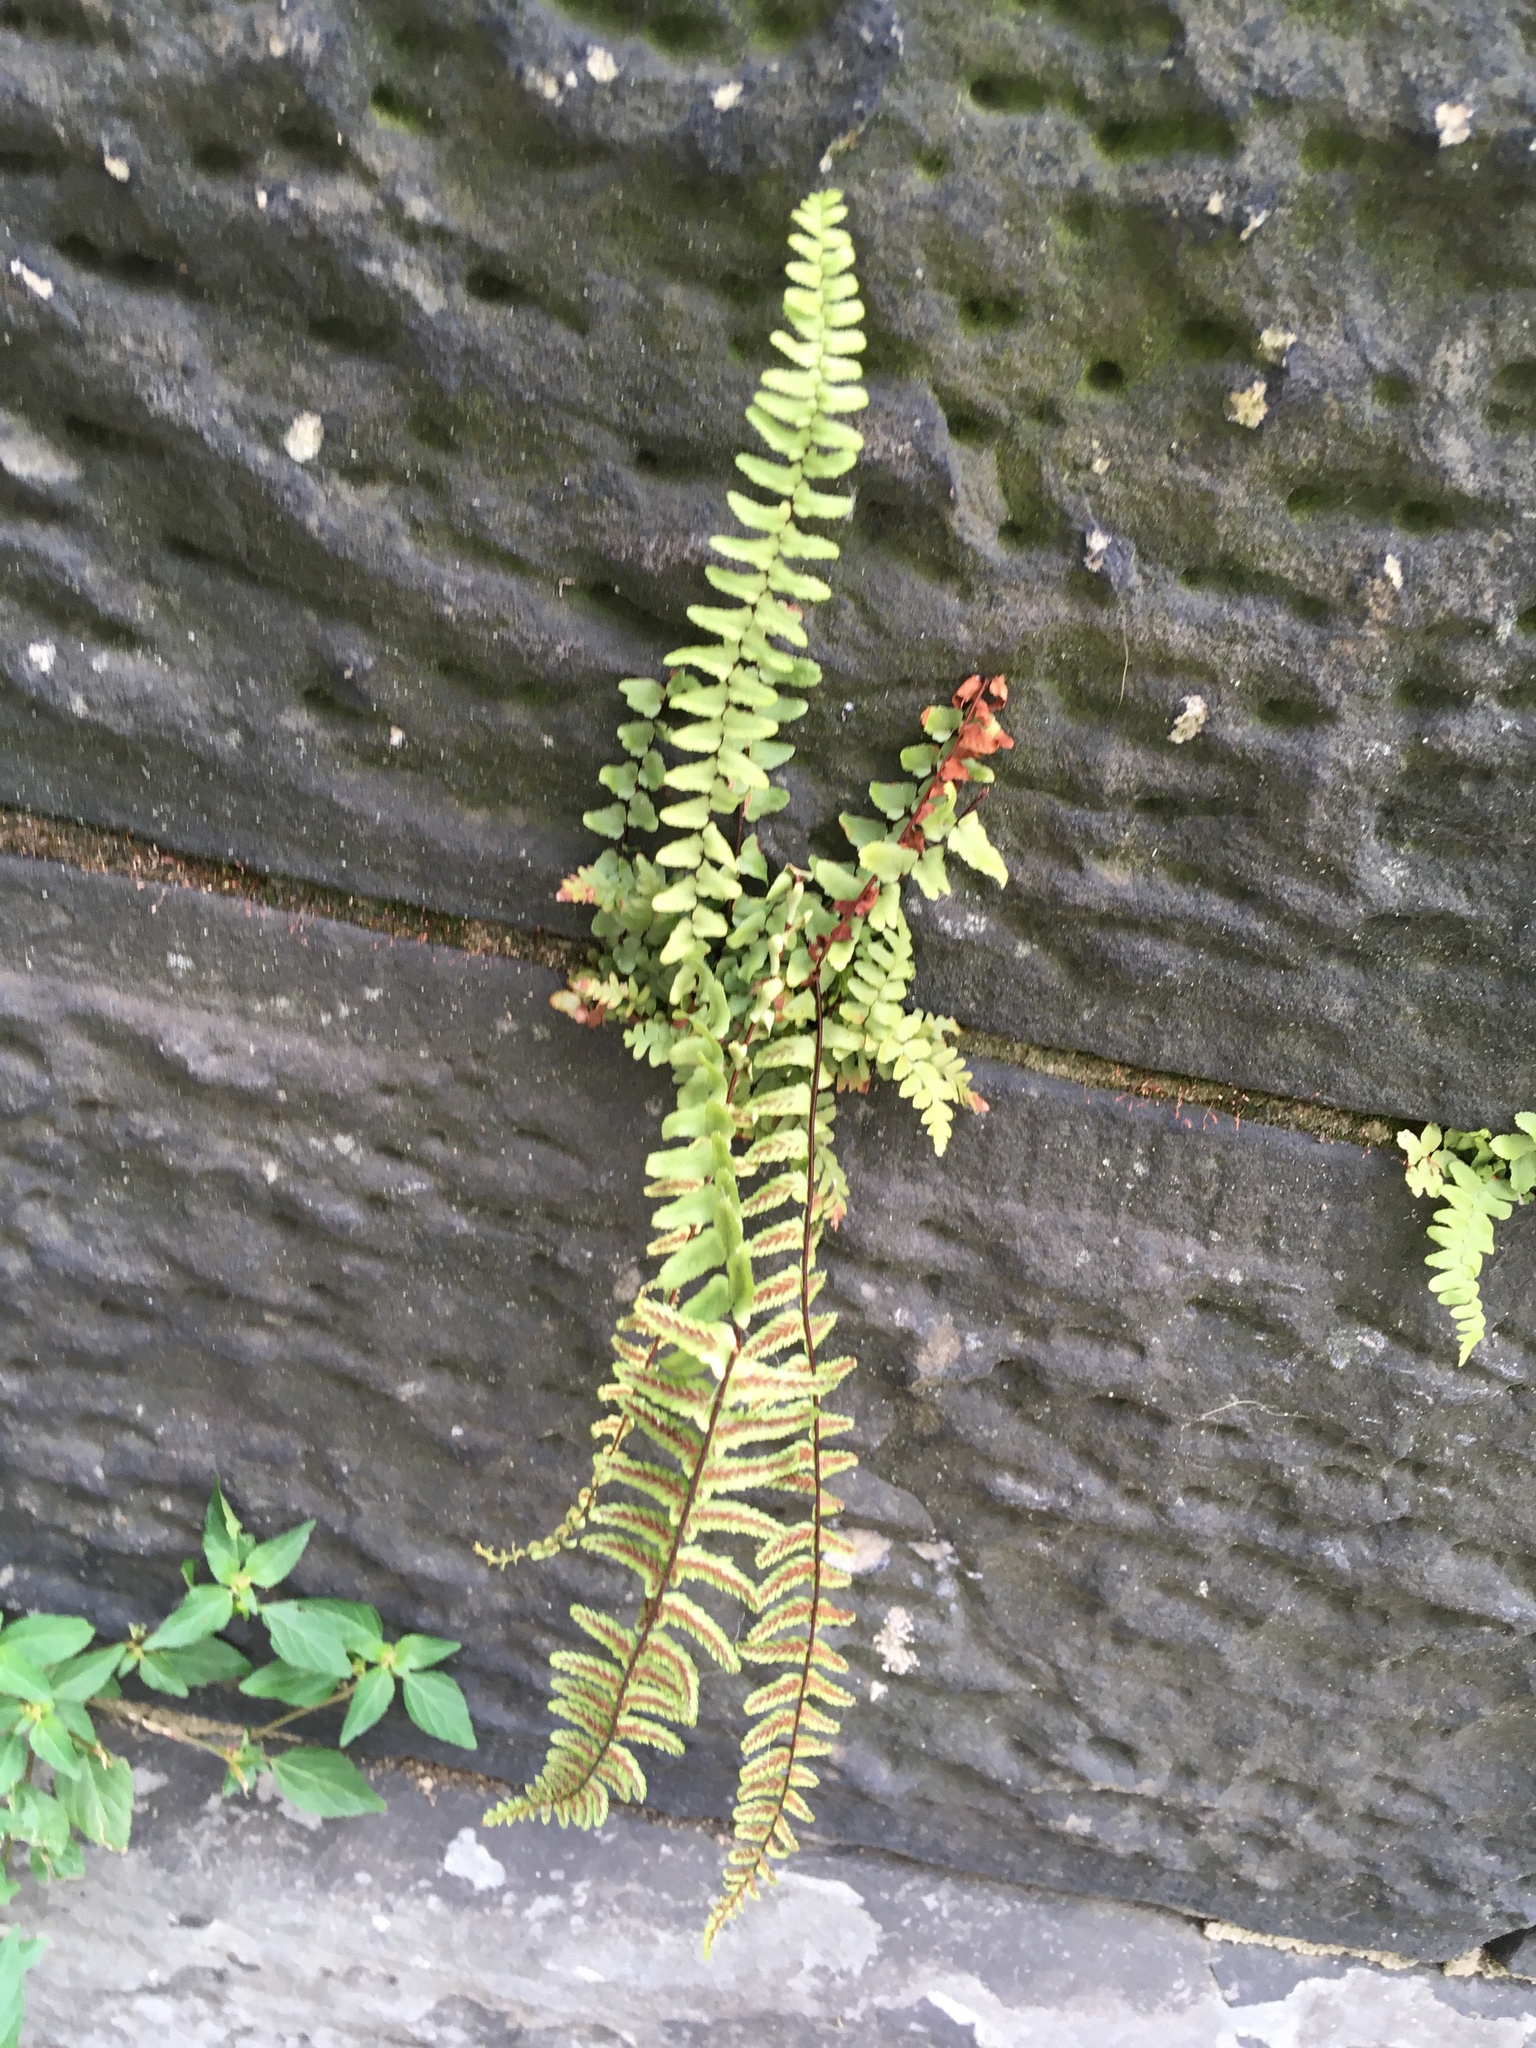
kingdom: Plantae
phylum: Tracheophyta
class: Polypodiopsida
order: Polypodiales
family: Aspleniaceae
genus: Asplenium
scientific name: Asplenium platyneuron
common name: Ebony spleenwort
